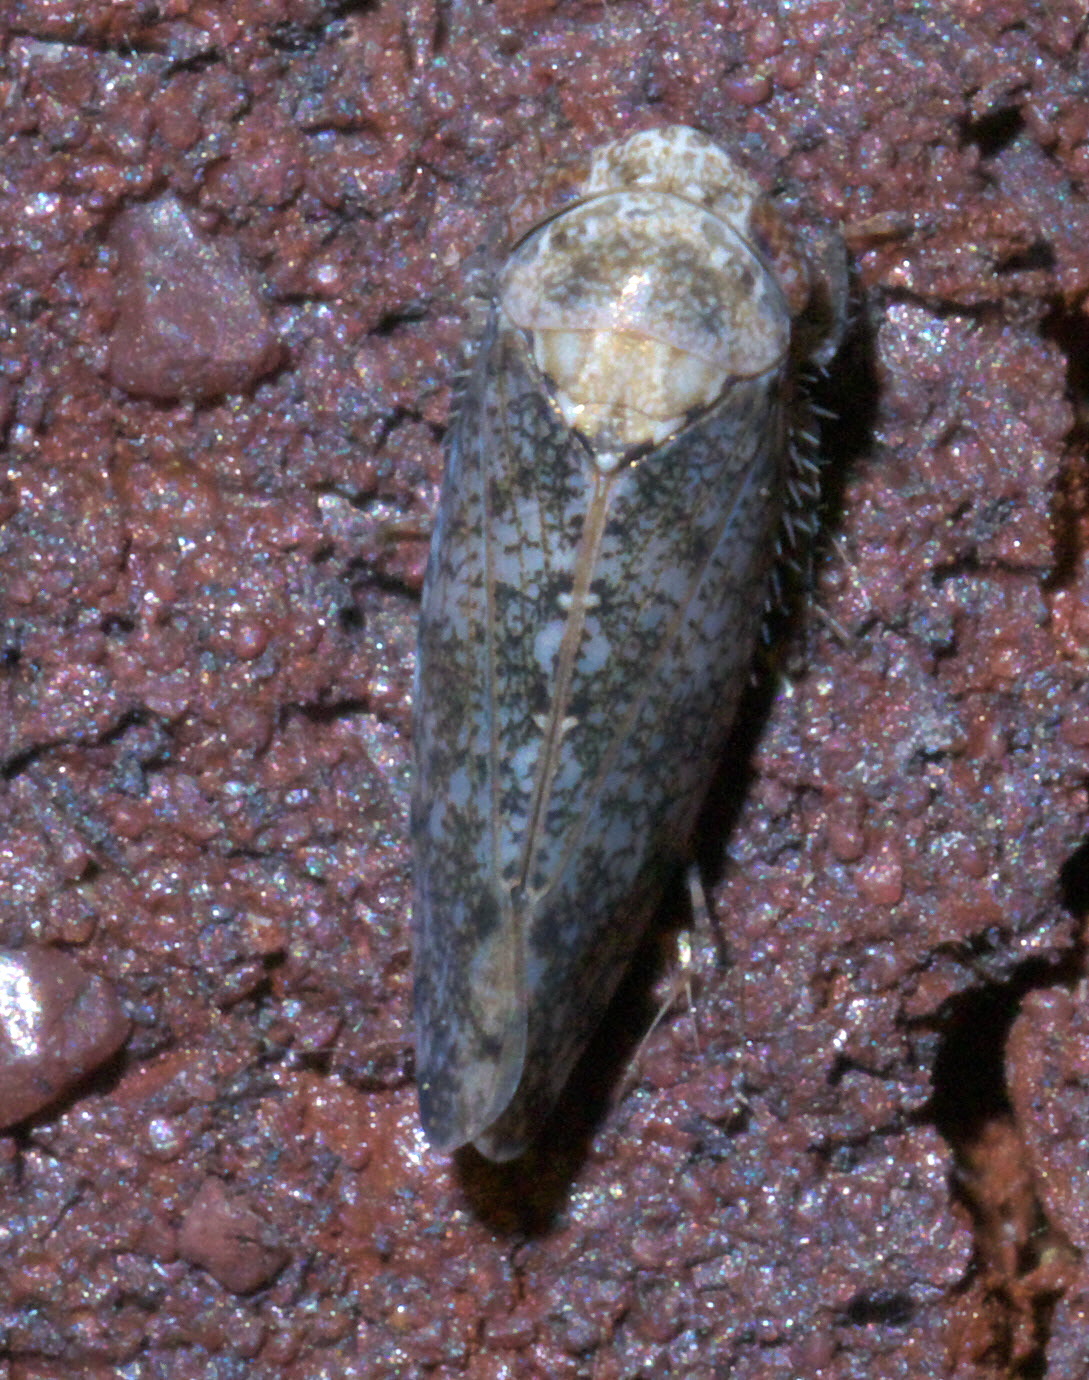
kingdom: Animalia
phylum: Arthropoda
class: Insecta
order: Hemiptera
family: Cicadellidae
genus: Paraphlepsius
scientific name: Paraphlepsius collitus
